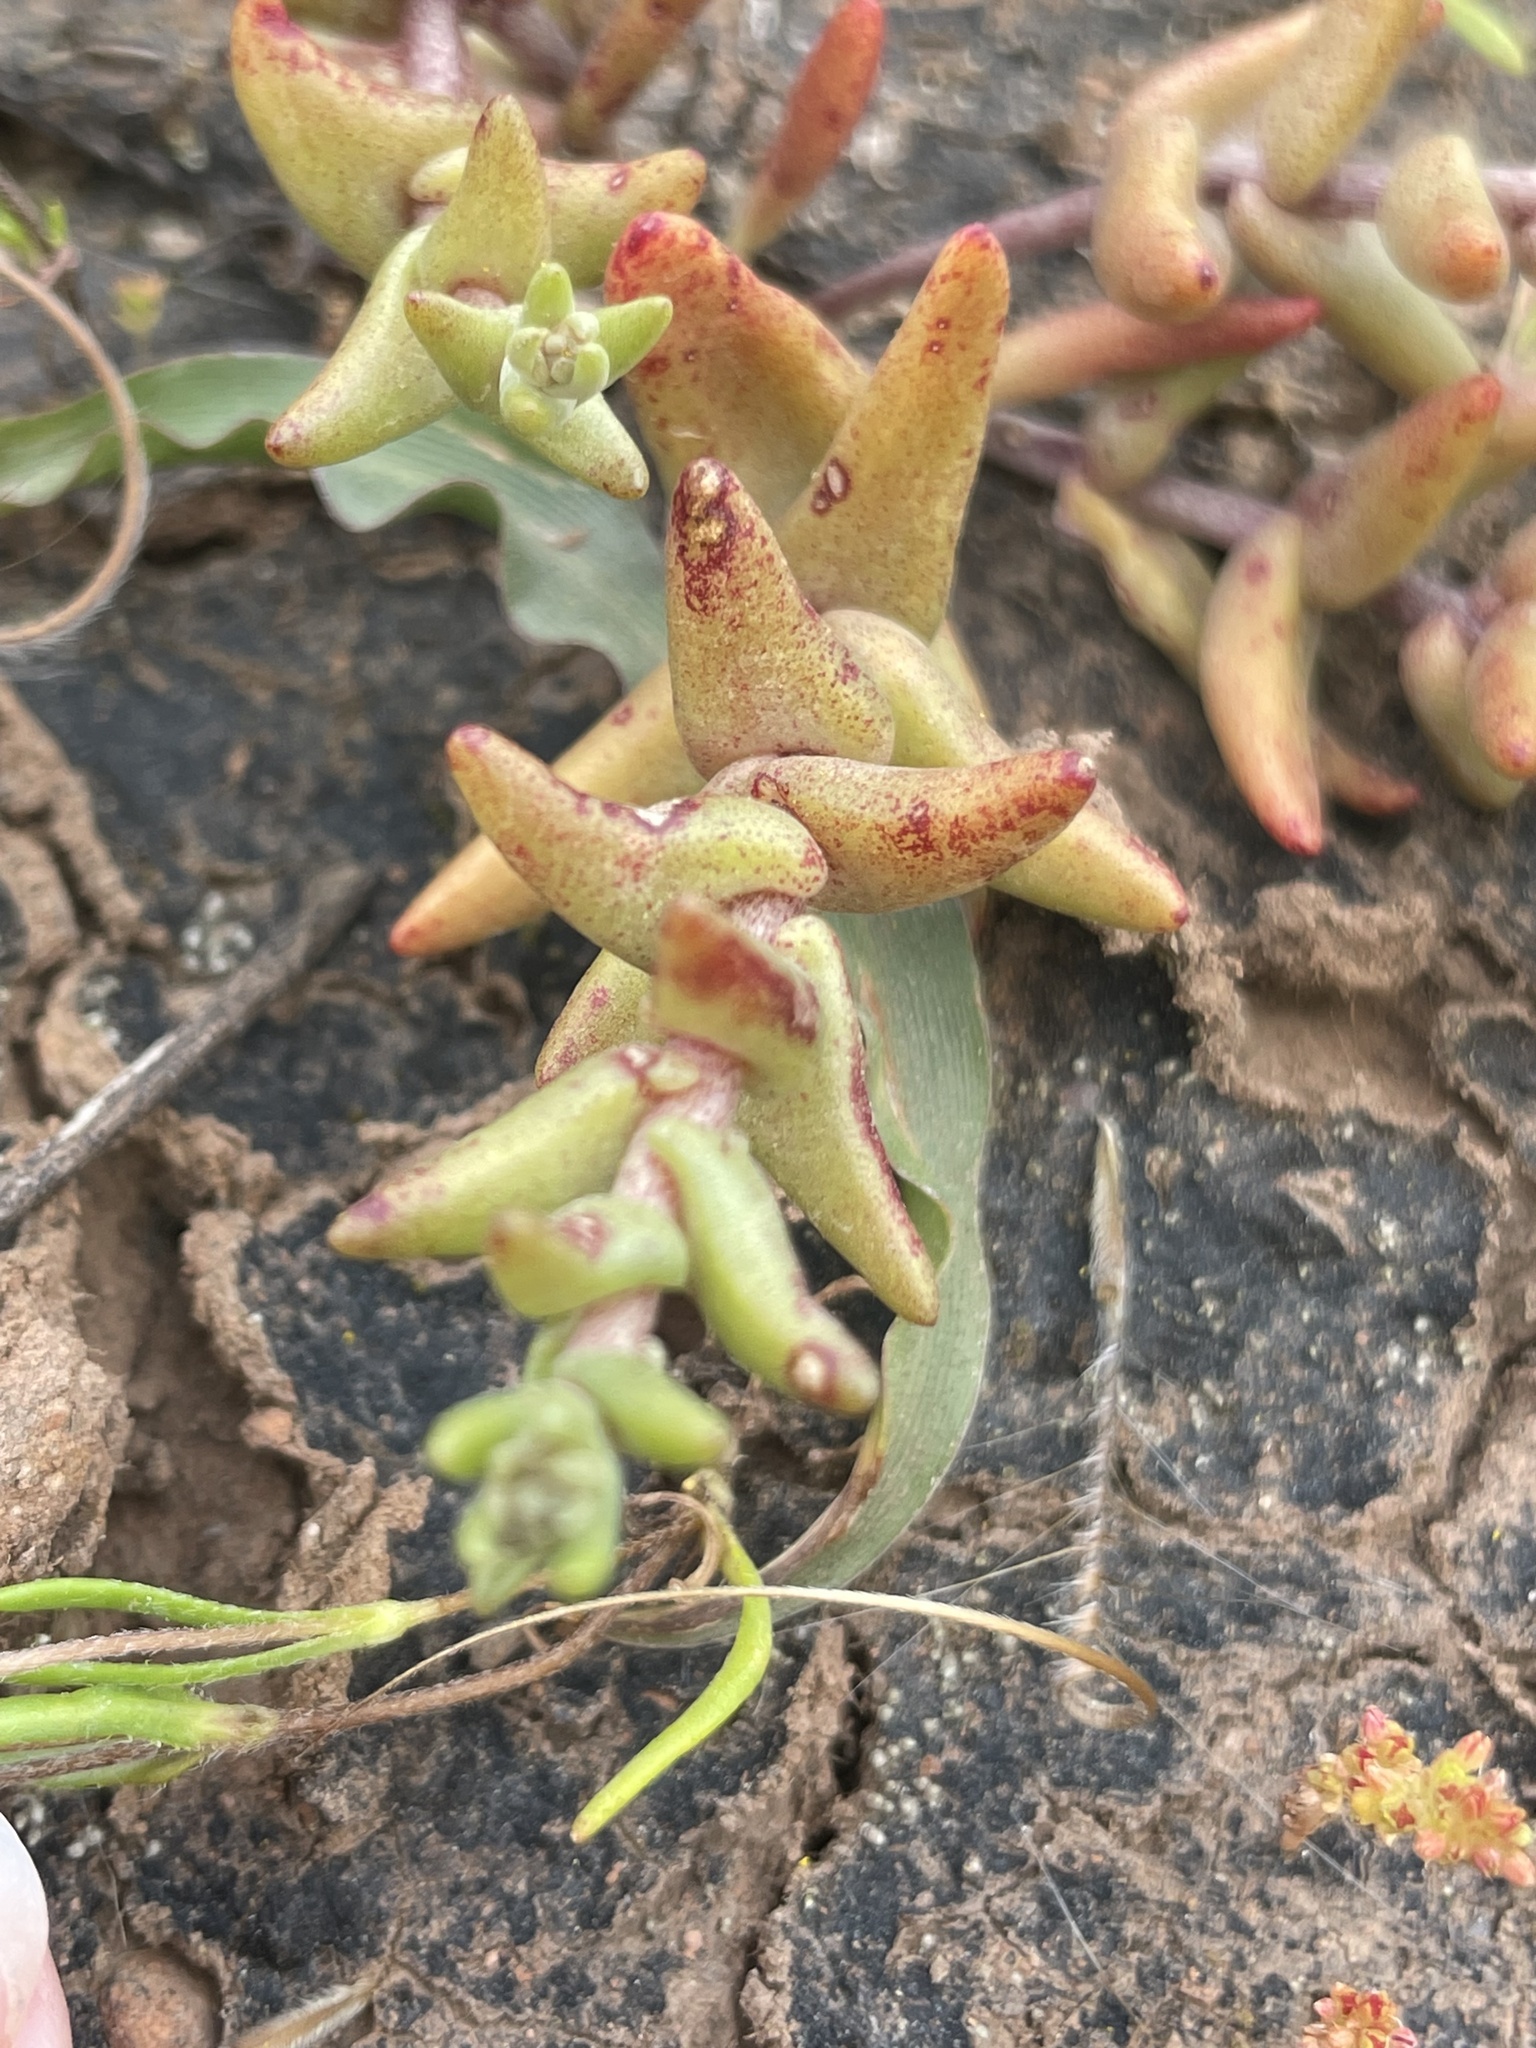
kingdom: Plantae
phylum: Tracheophyta
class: Magnoliopsida
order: Saxifragales
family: Crassulaceae
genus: Dudleya
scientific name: Dudleya variegata
